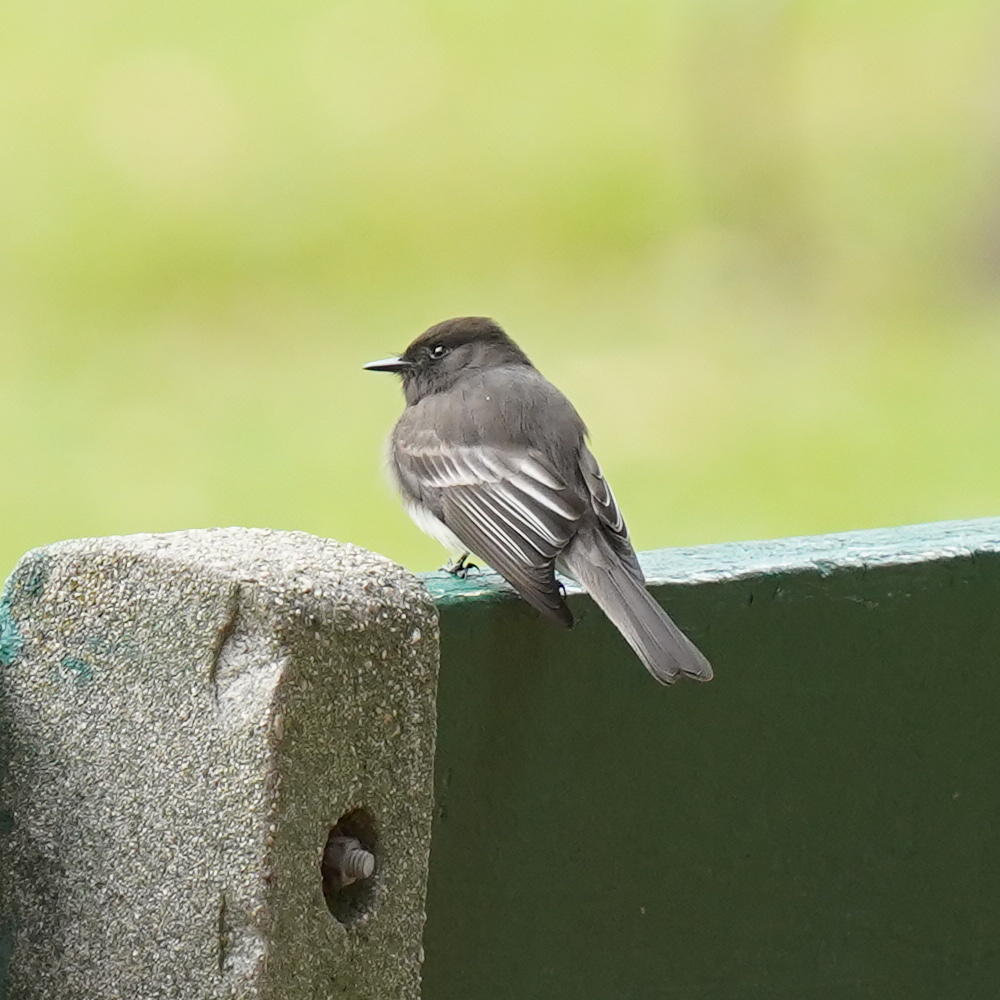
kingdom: Animalia
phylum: Chordata
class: Aves
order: Passeriformes
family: Tyrannidae
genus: Sayornis
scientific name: Sayornis nigricans
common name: Black phoebe
